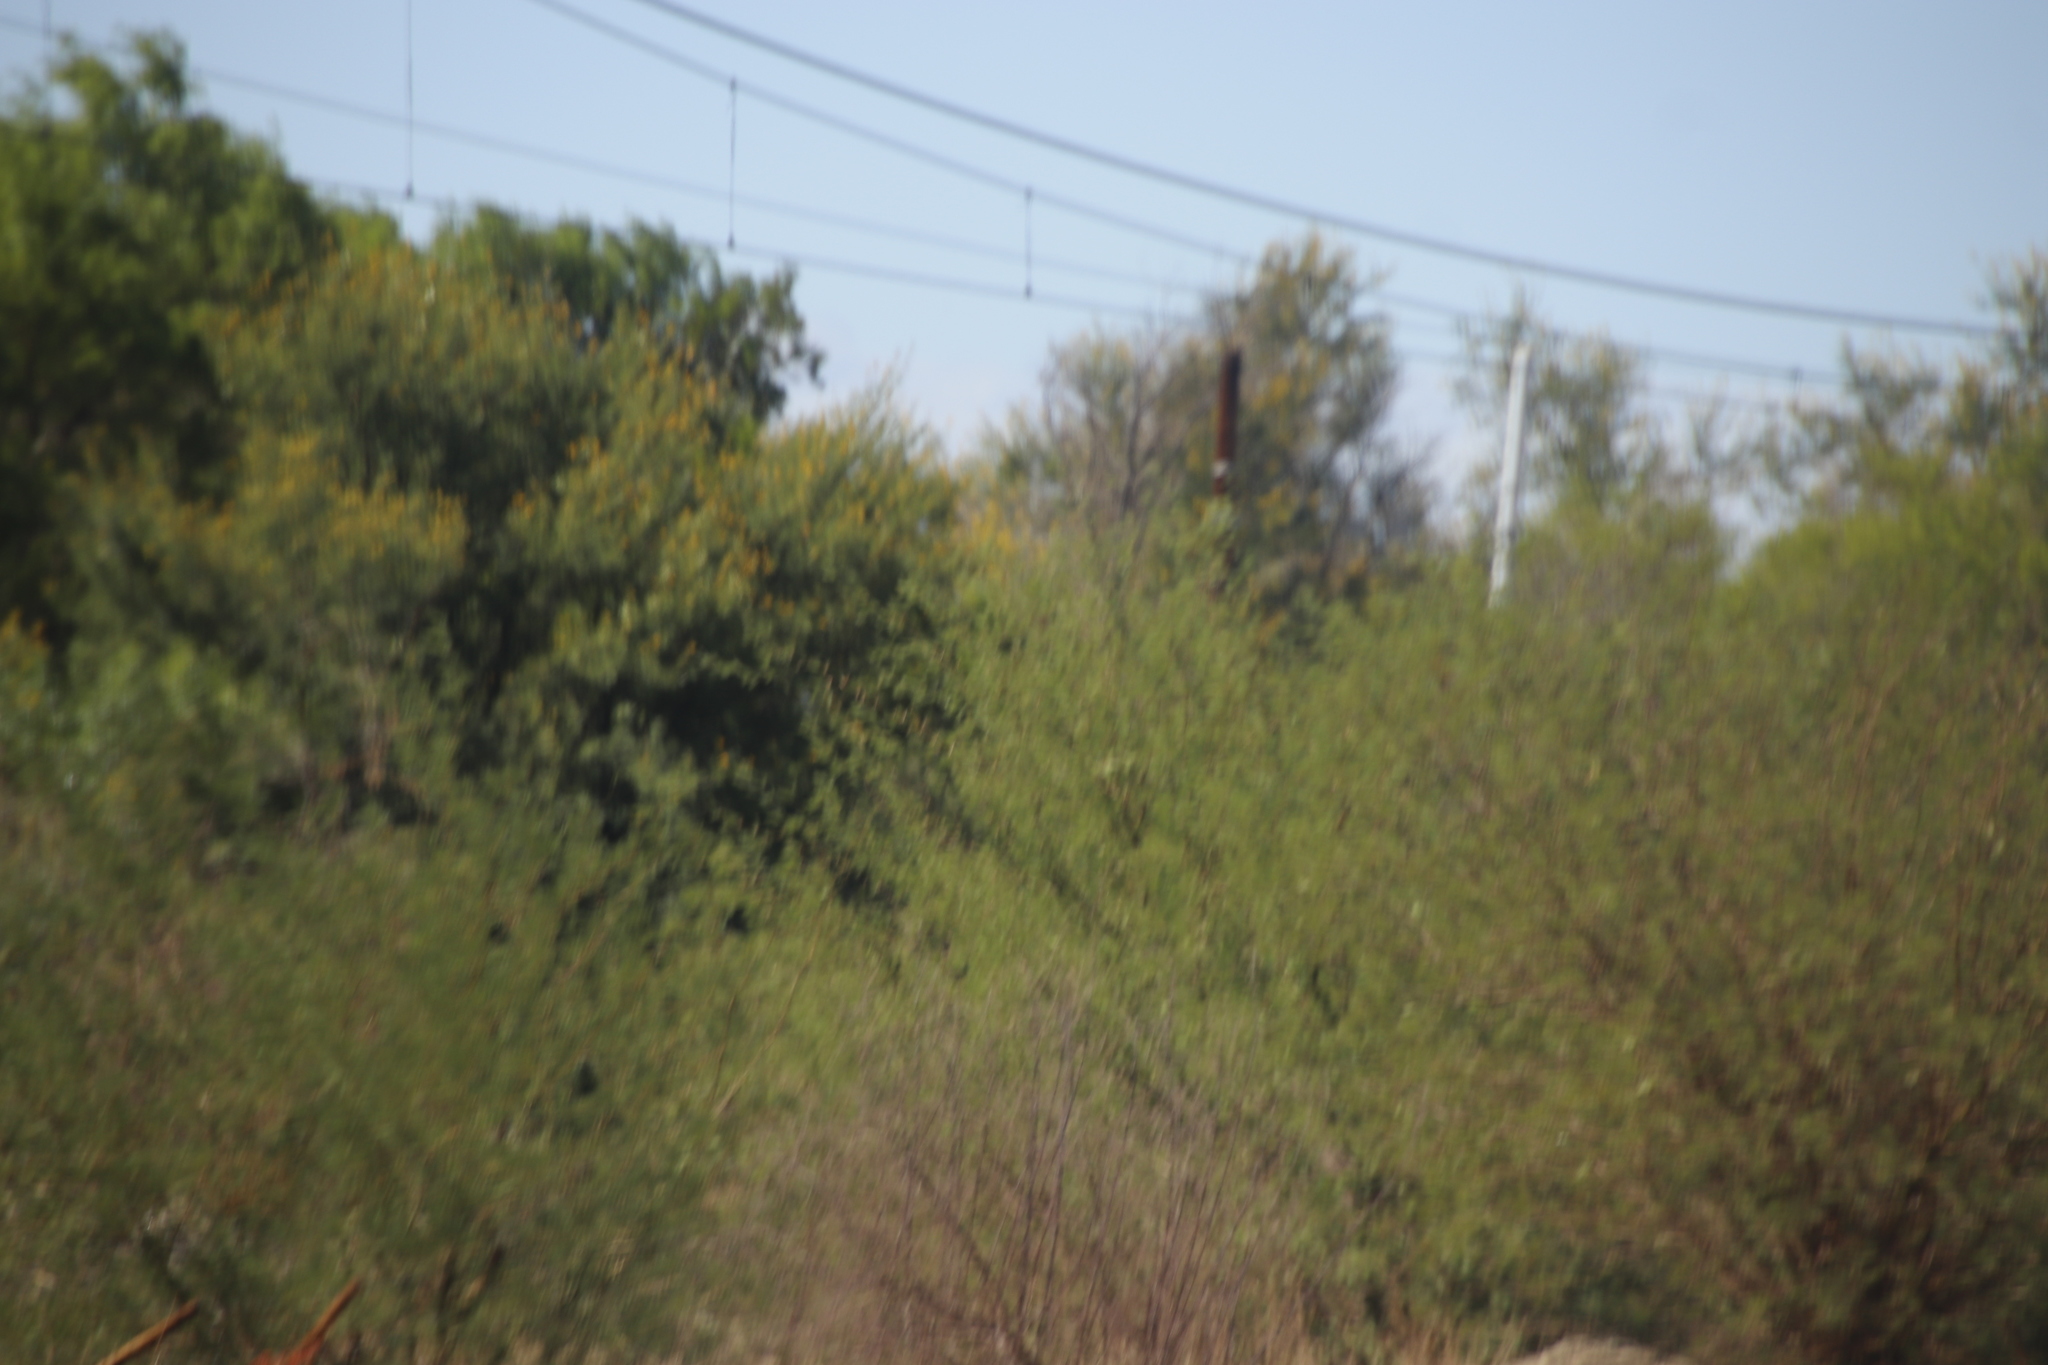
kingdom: Plantae
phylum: Tracheophyta
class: Magnoliopsida
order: Fabales
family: Fabaceae
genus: Prosopis
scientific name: Prosopis glandulosa
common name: Honey mesquite
